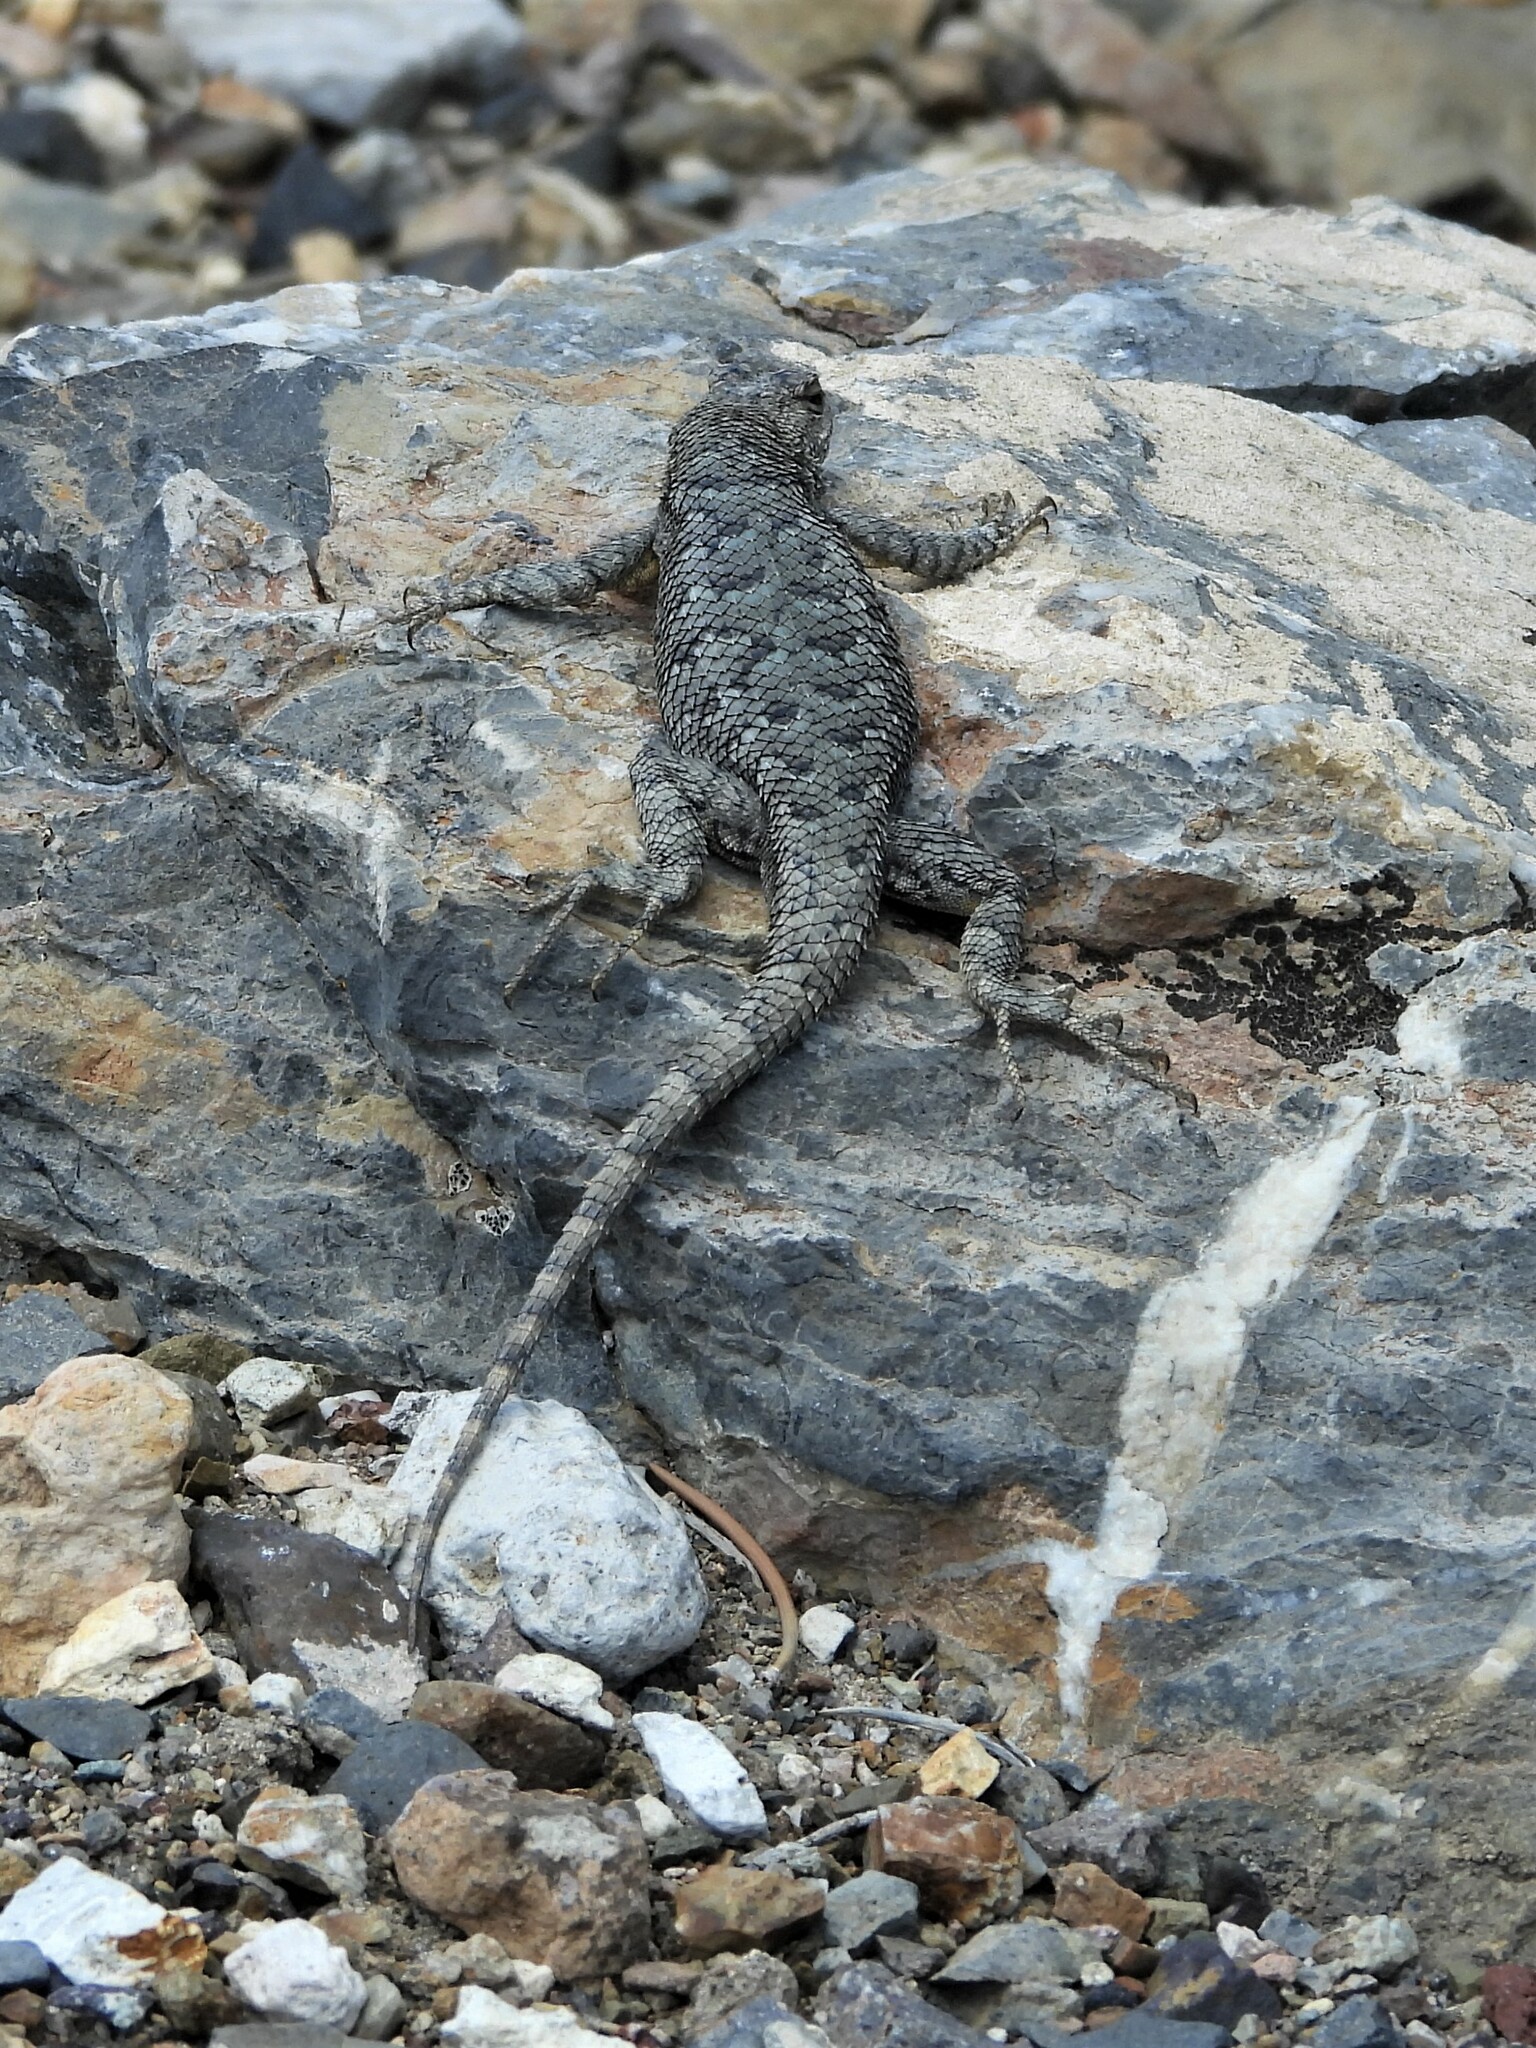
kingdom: Animalia
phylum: Chordata
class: Squamata
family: Phrynosomatidae
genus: Sceloporus
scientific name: Sceloporus occidentalis
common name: Western fence lizard
